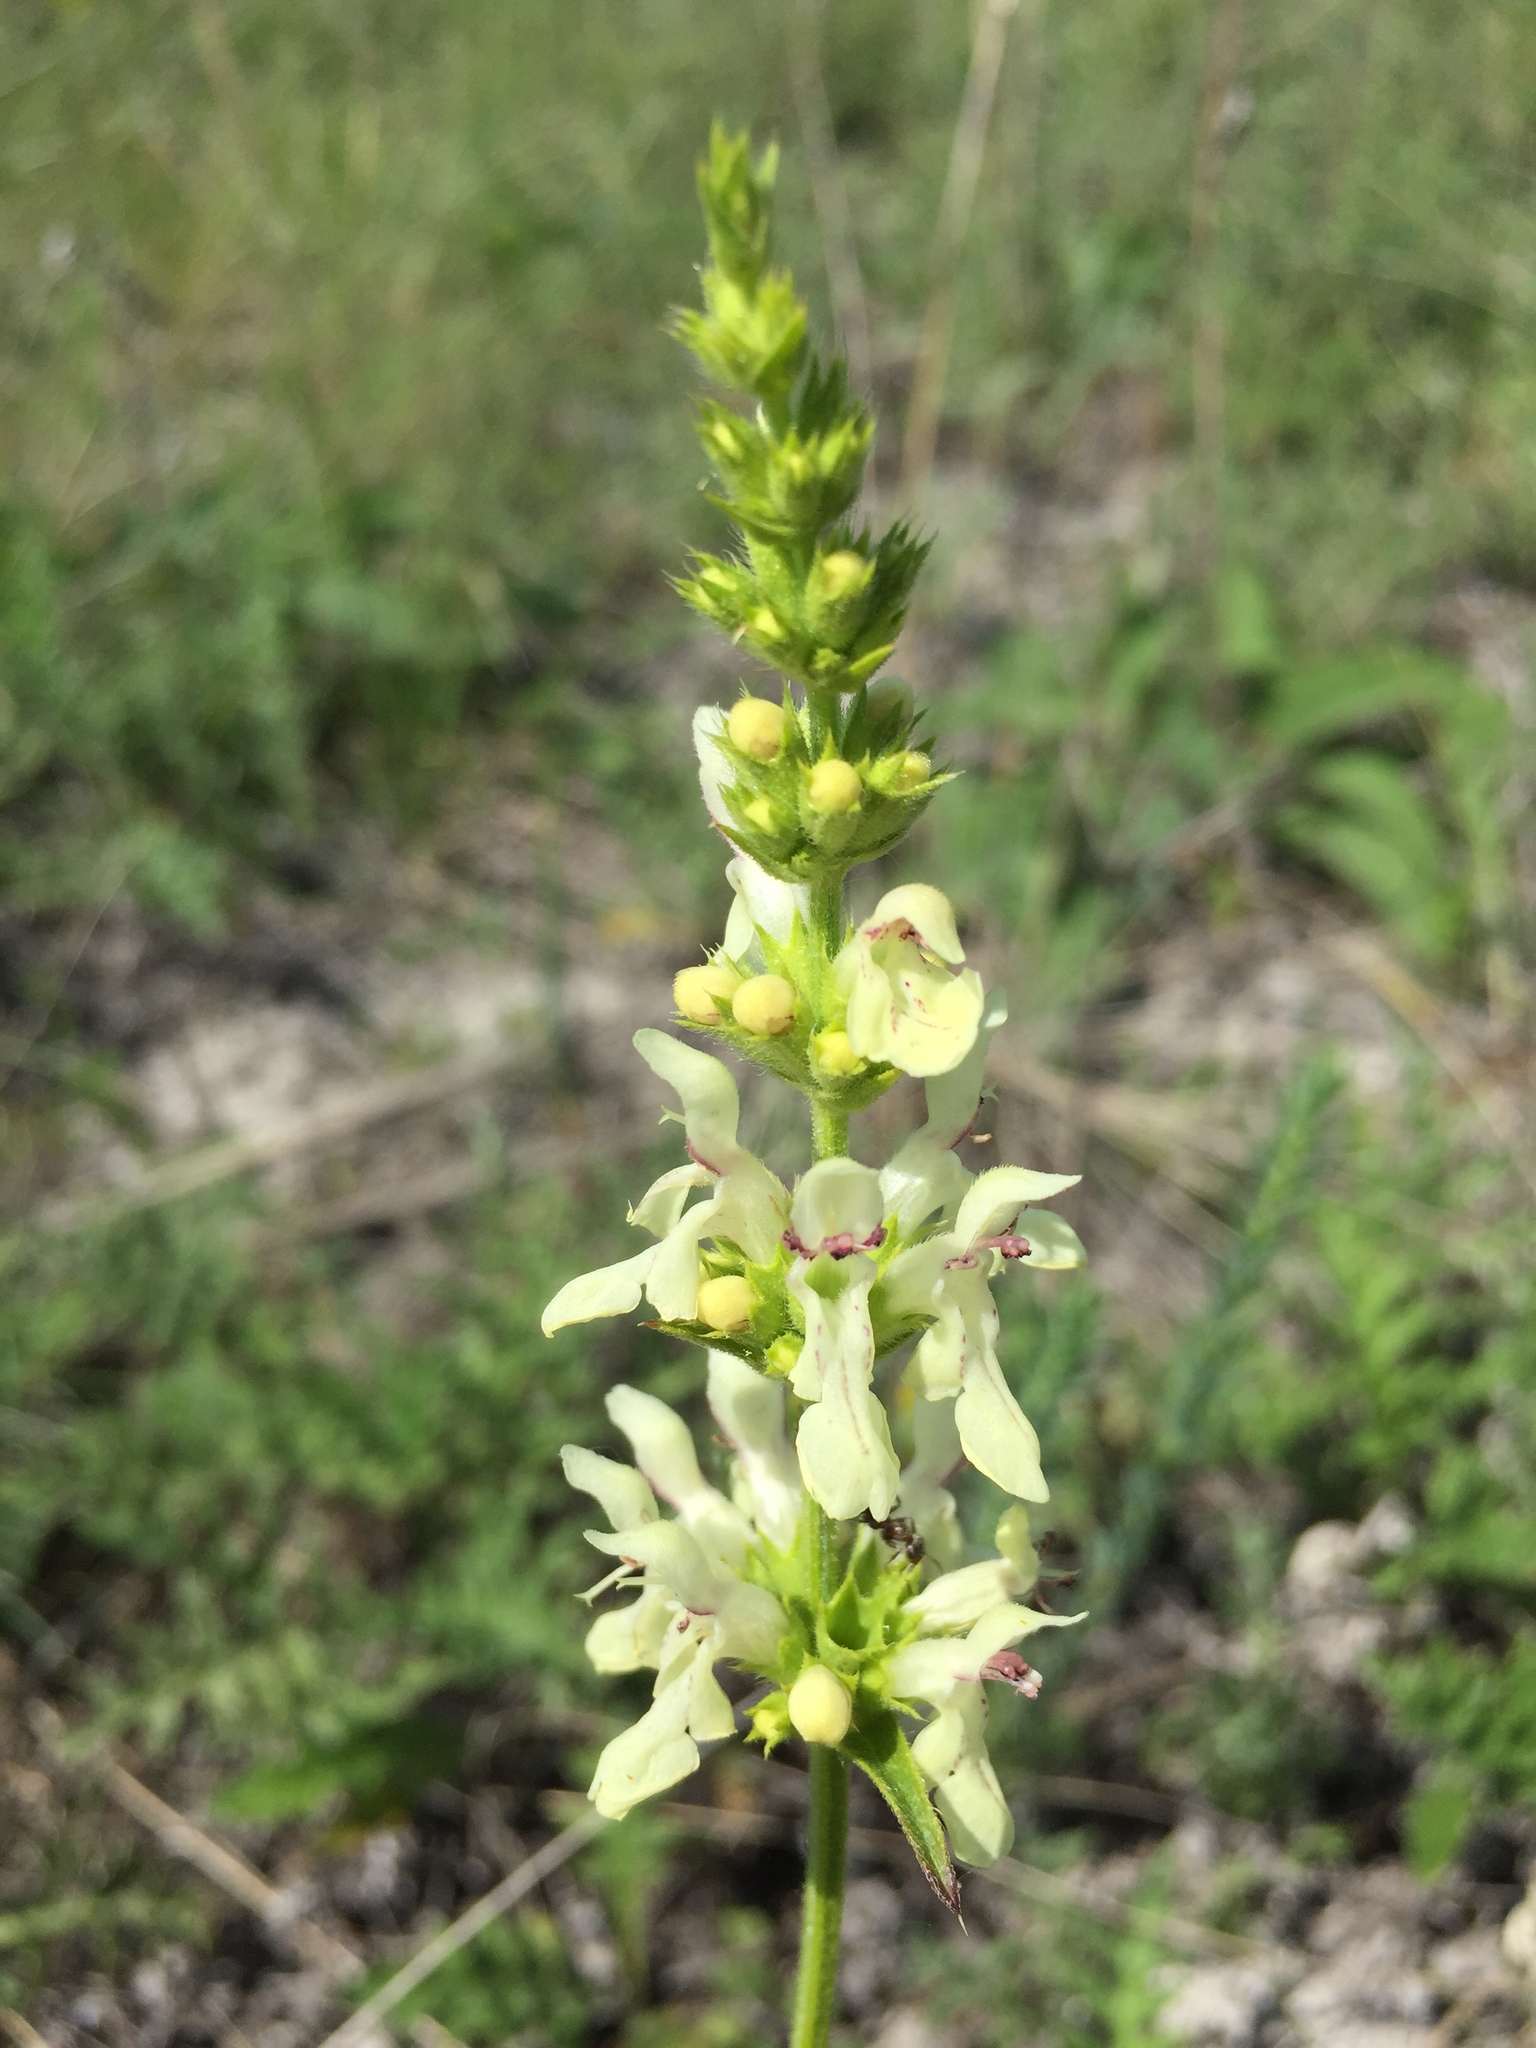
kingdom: Plantae
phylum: Tracheophyta
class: Magnoliopsida
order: Lamiales
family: Lamiaceae
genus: Stachys
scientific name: Stachys recta
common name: Perennial yellow-woundwort
